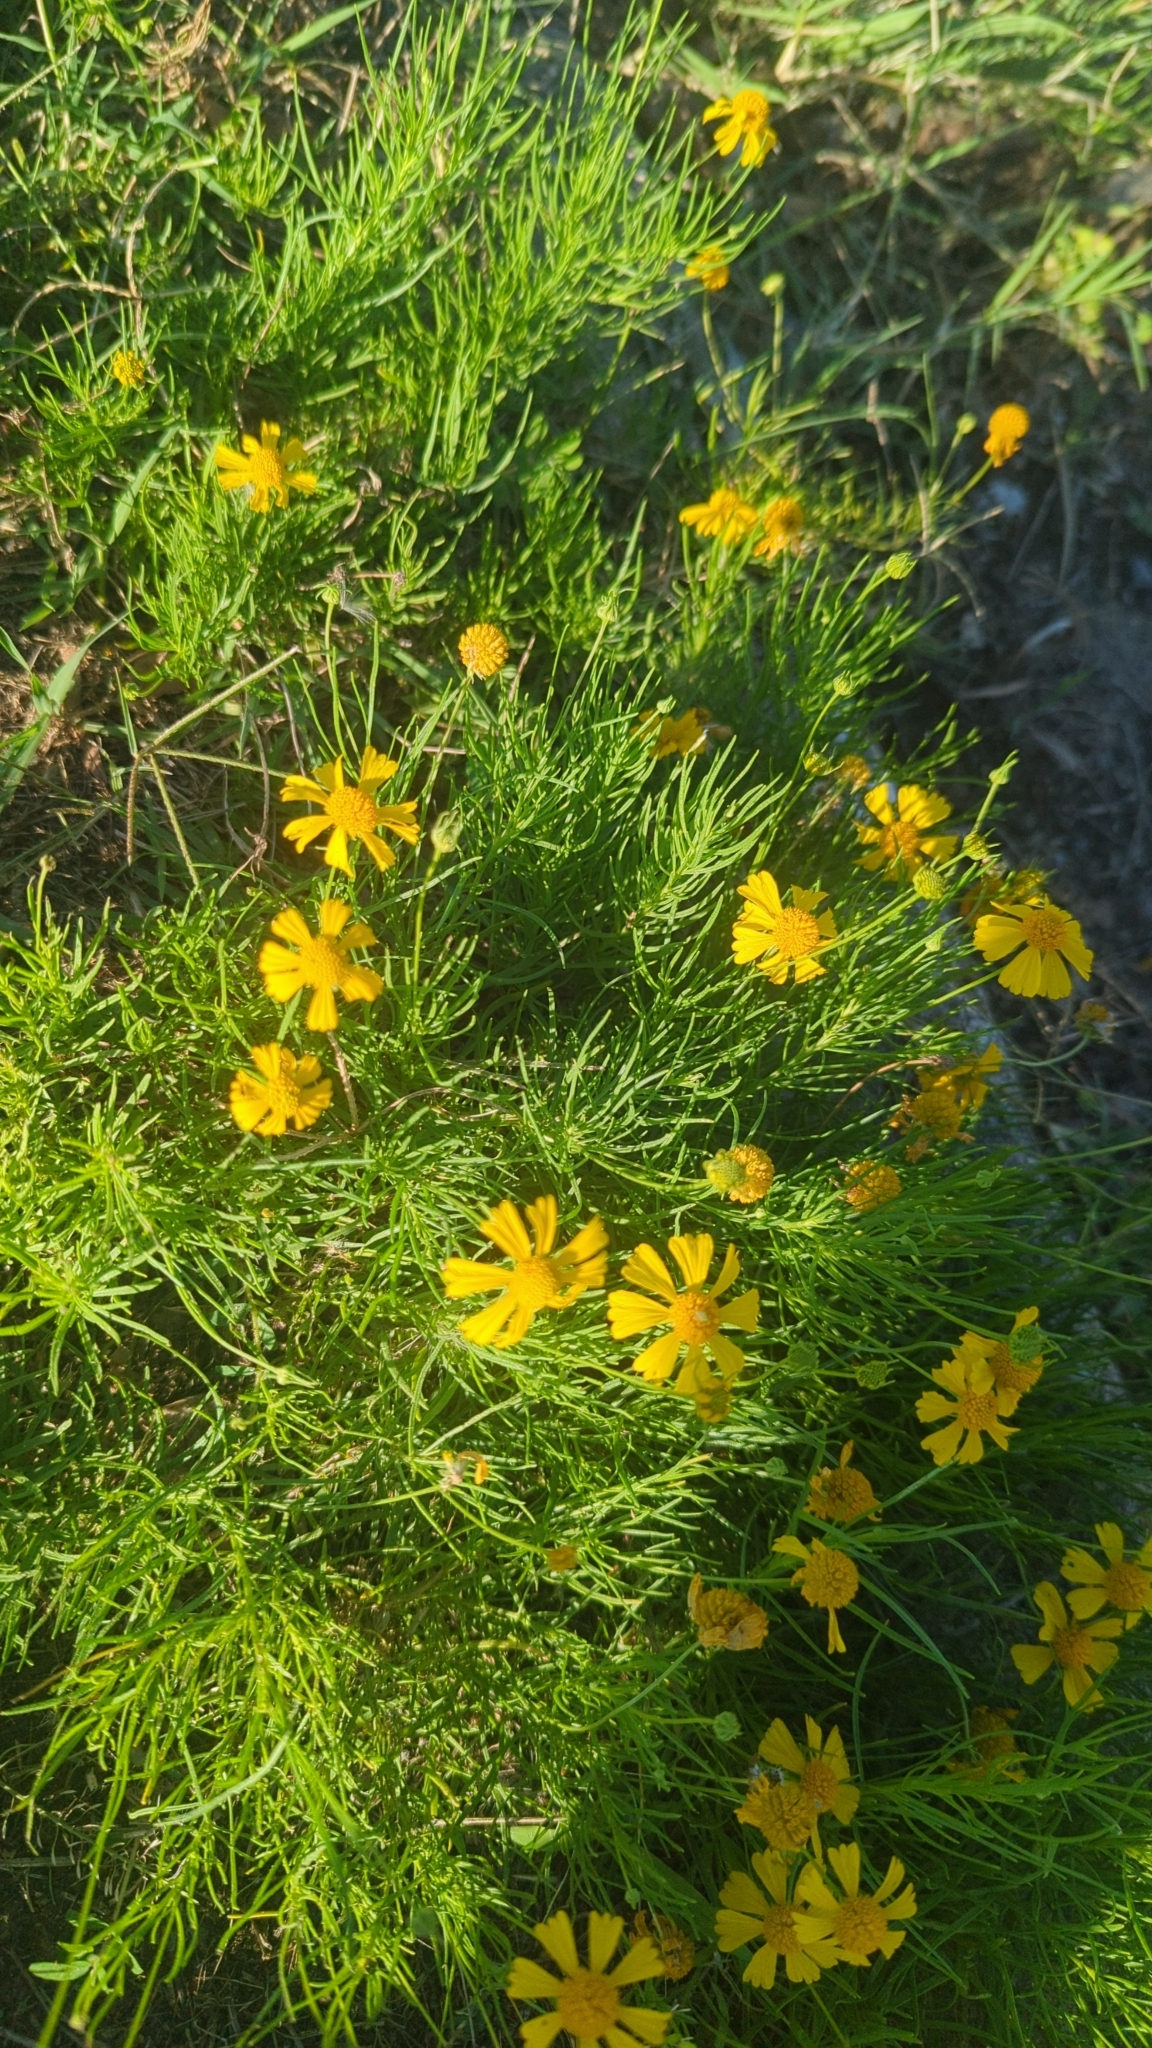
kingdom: Plantae
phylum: Tracheophyta
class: Magnoliopsida
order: Asterales
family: Asteraceae
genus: Helenium
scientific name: Helenium amarum
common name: Bitter sneezeweed
